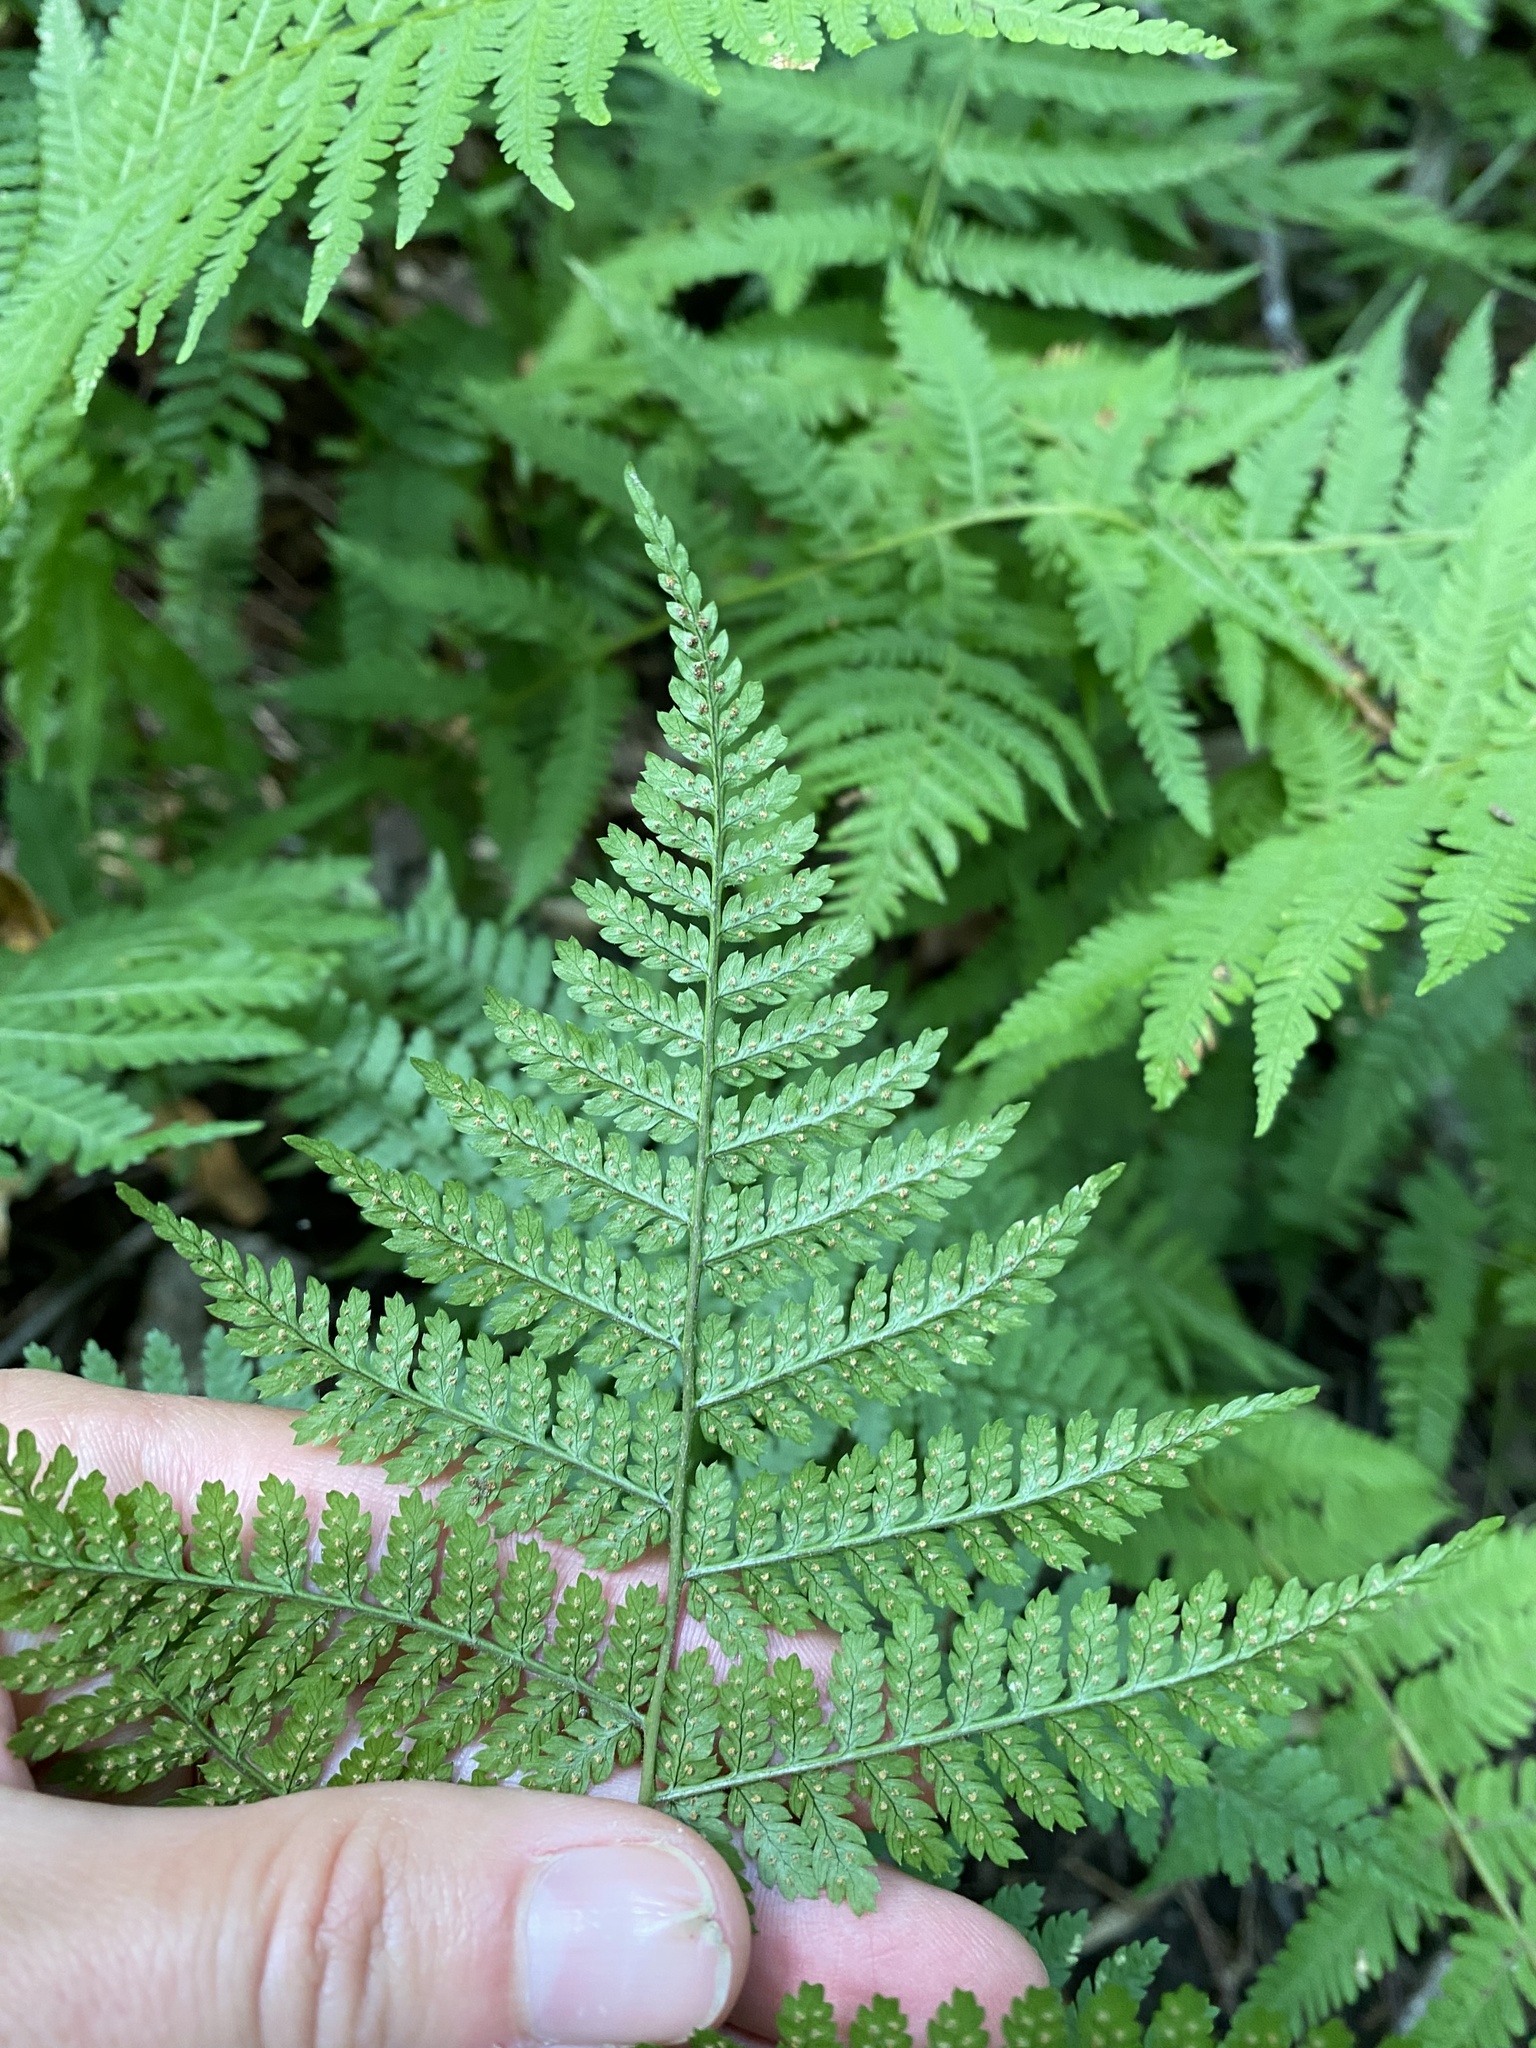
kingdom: Plantae
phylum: Tracheophyta
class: Polypodiopsida
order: Polypodiales
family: Dryopteridaceae
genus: Dryopteris
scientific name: Dryopteris intermedia
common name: Evergreen wood fern
